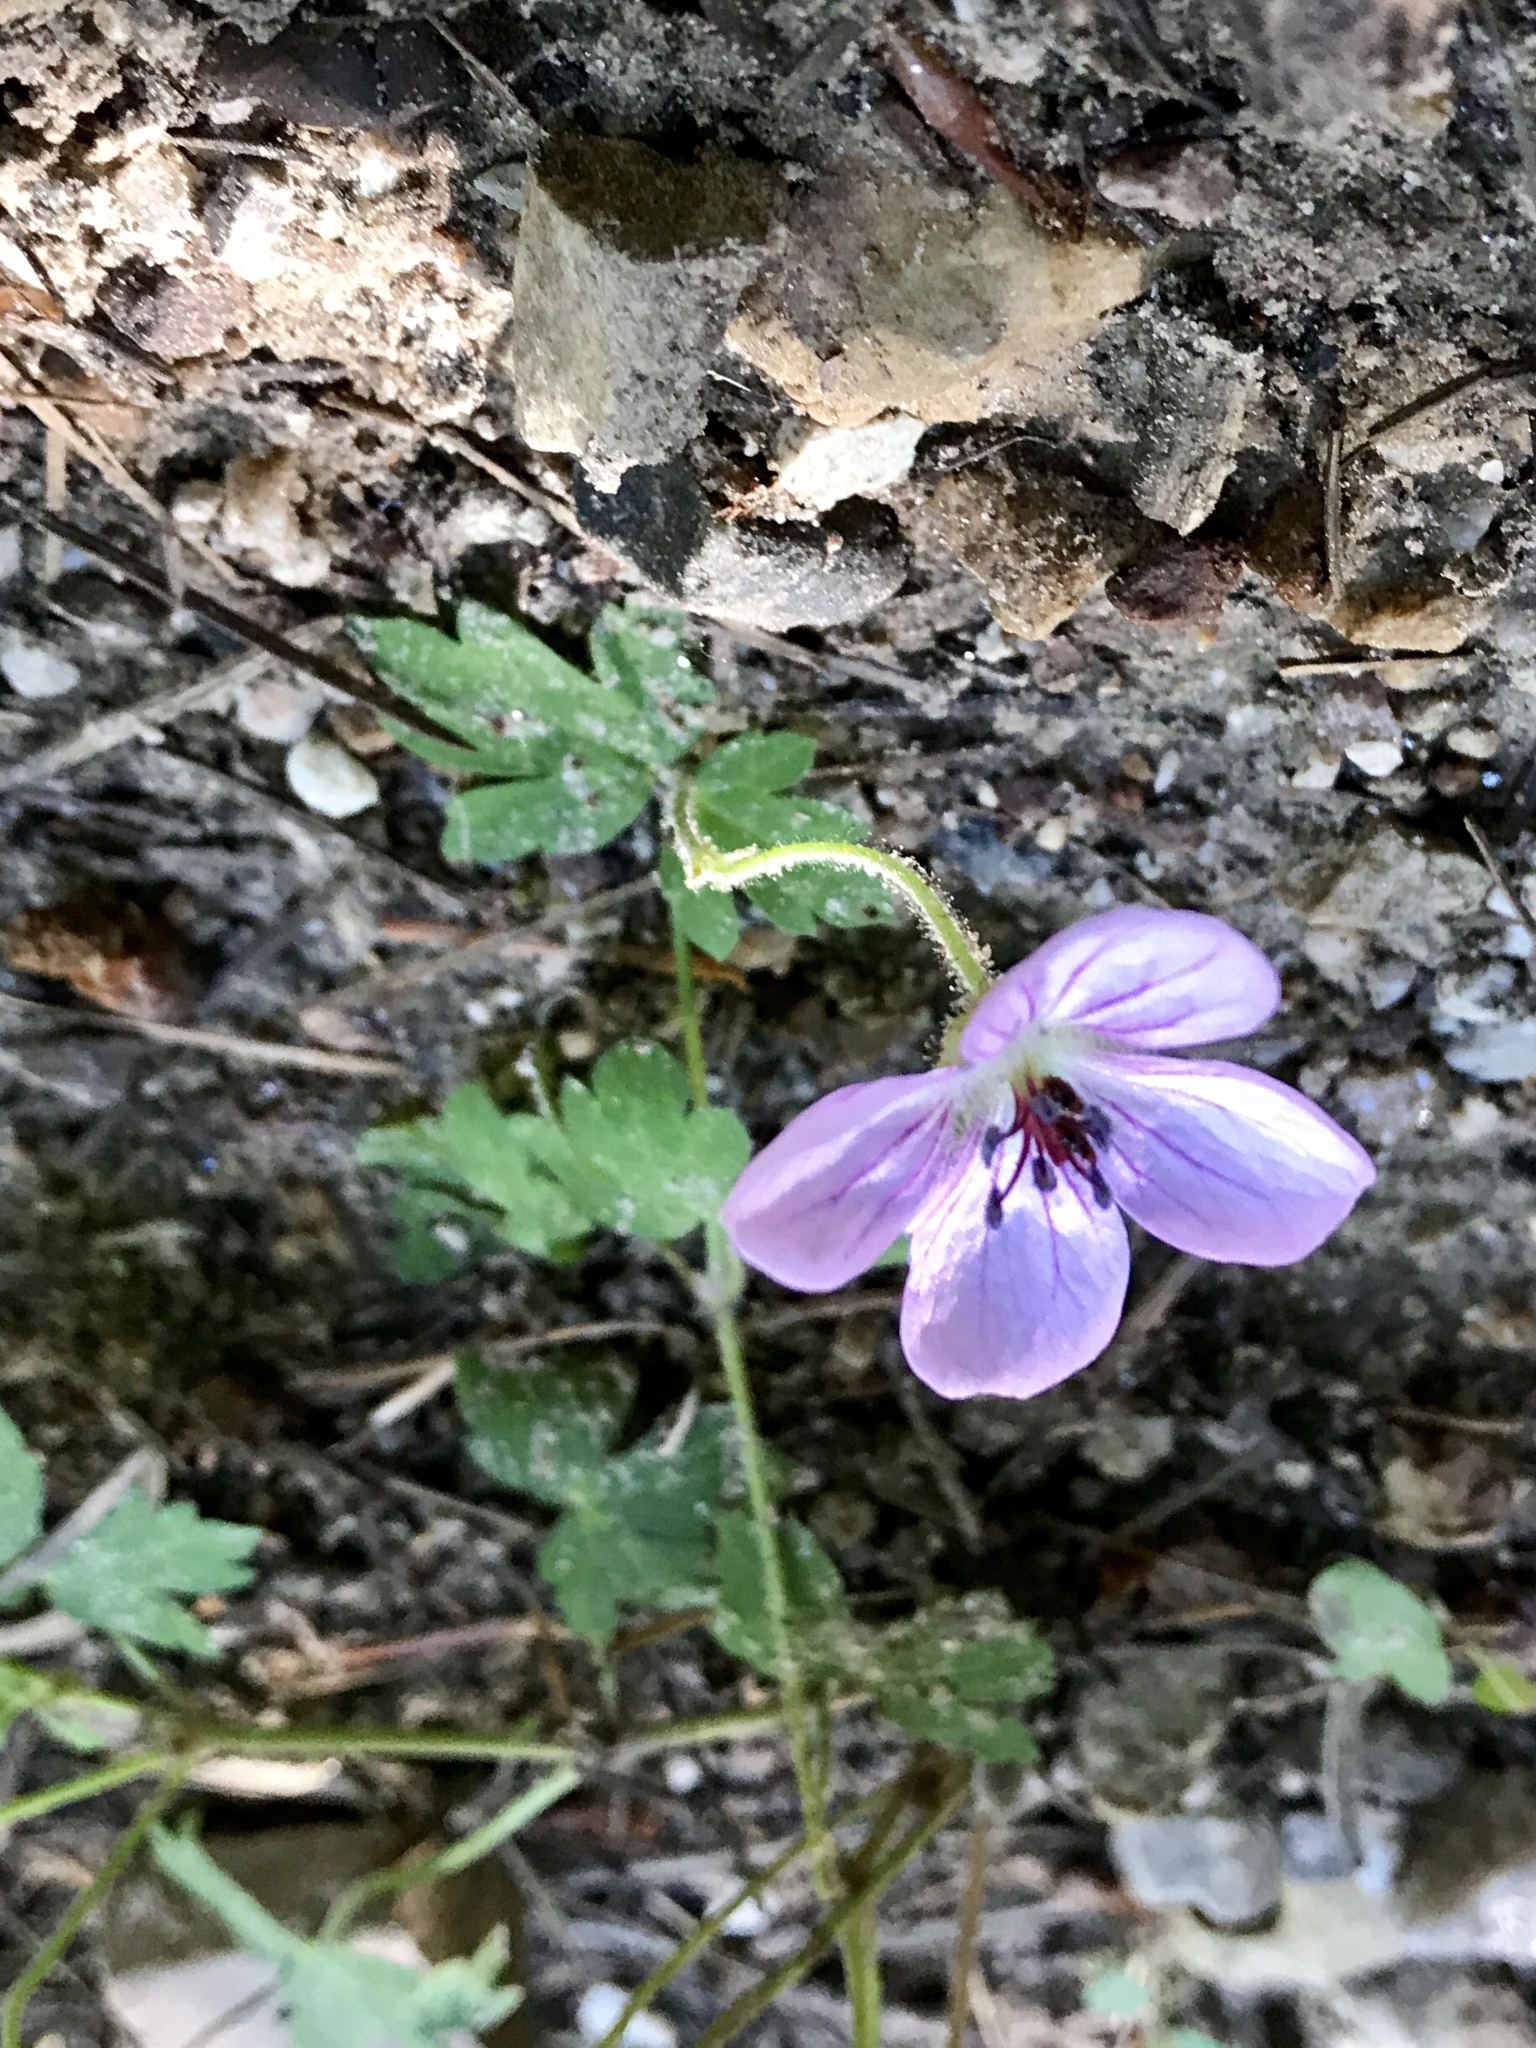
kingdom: Plantae
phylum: Tracheophyta
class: Magnoliopsida
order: Geraniales
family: Geraniaceae
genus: Geranium
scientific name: Geranium richardsonii
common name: Richardson's crane's-bill
